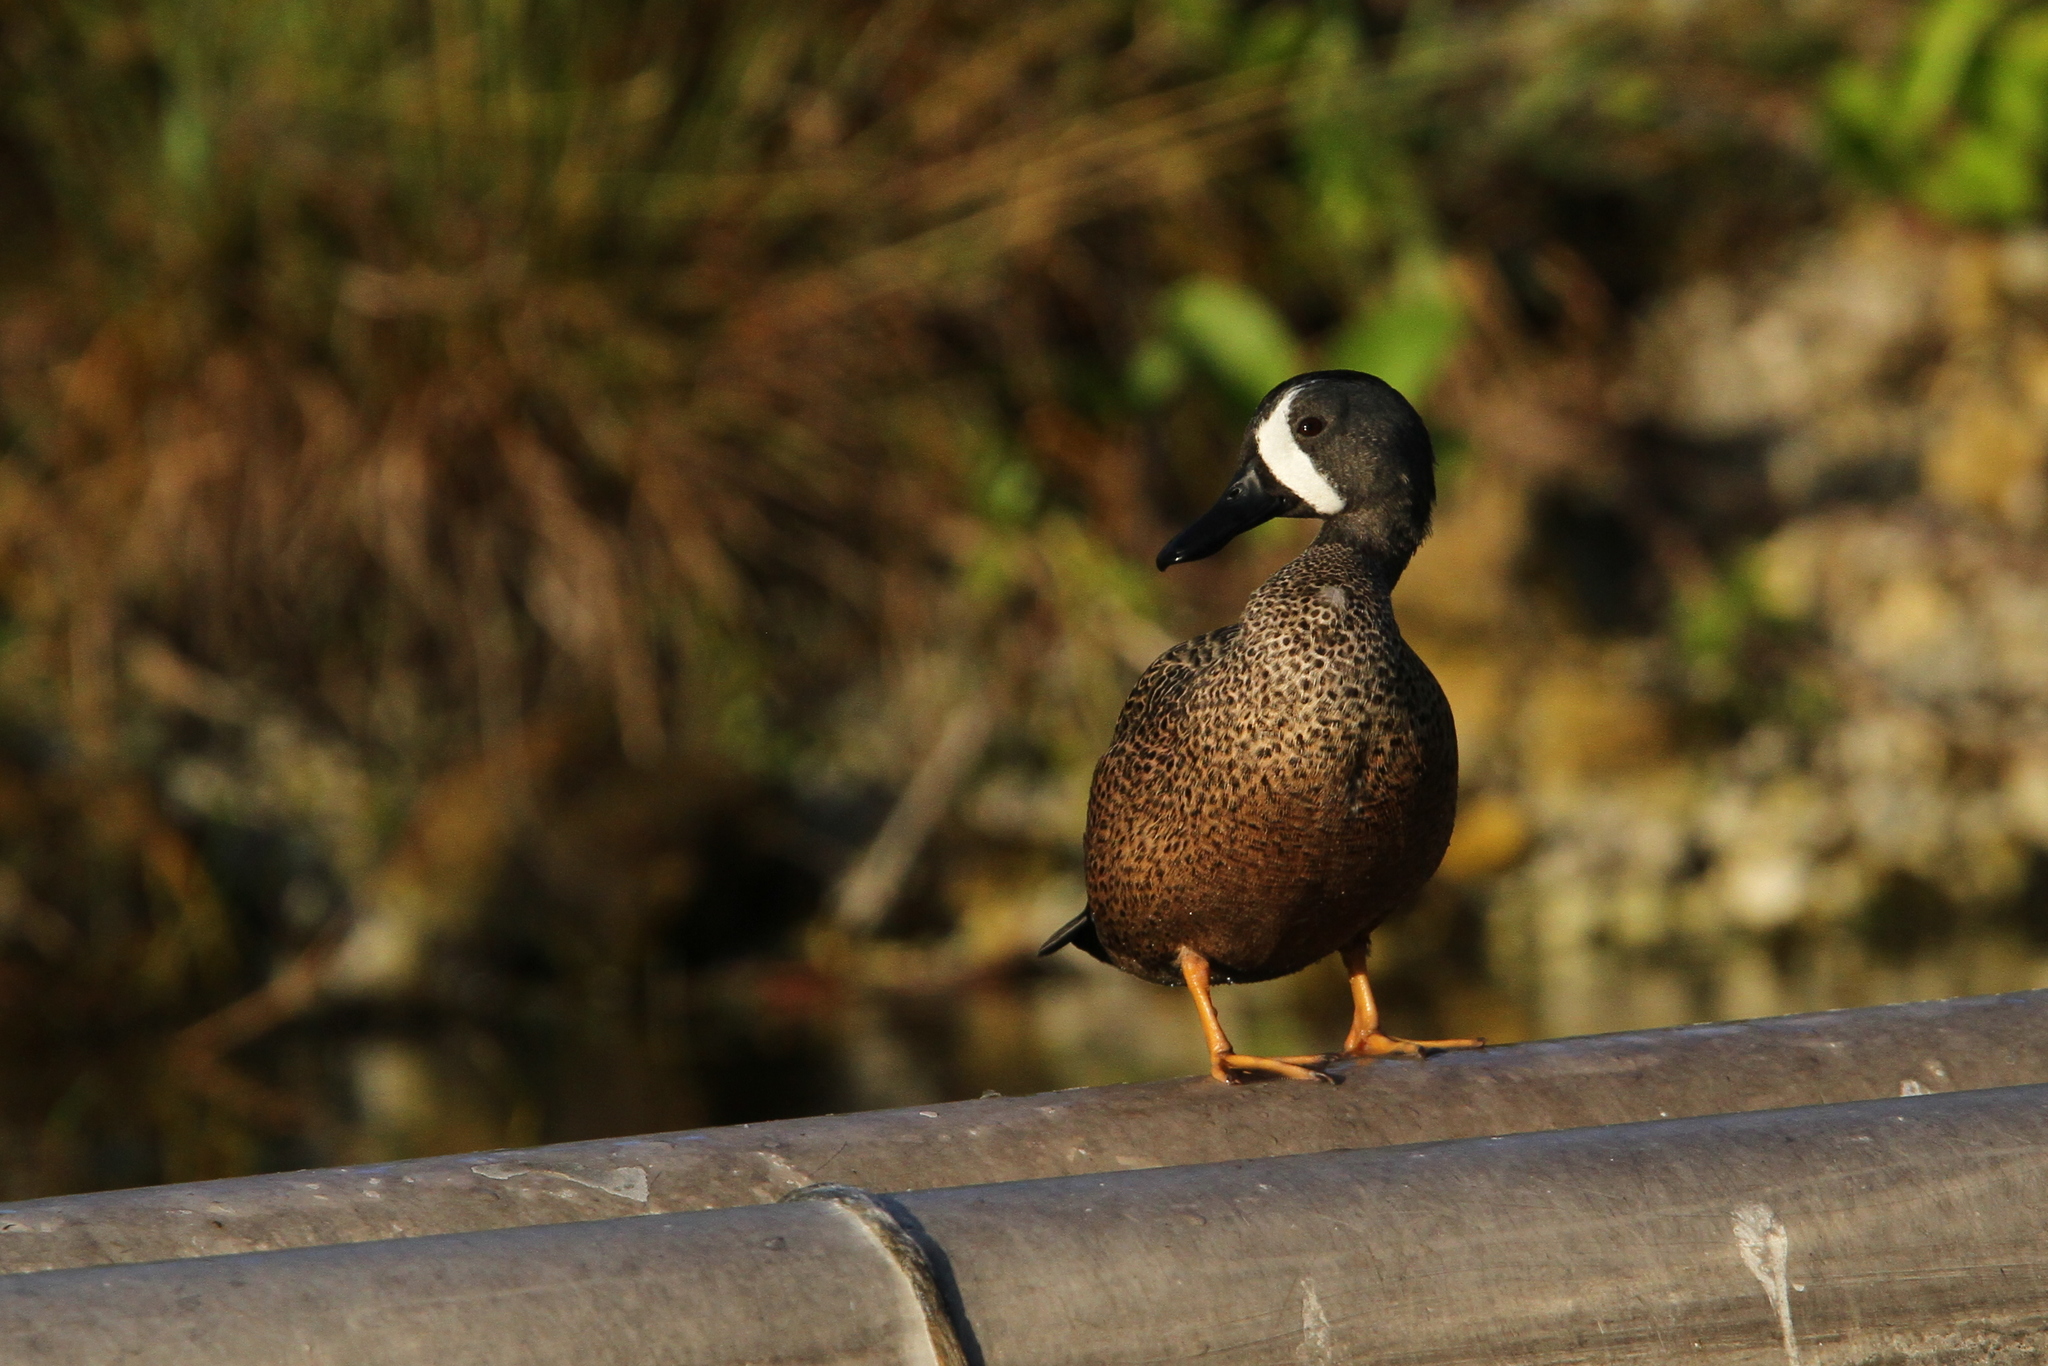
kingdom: Animalia
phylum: Chordata
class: Aves
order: Anseriformes
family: Anatidae
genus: Spatula
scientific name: Spatula discors
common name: Blue-winged teal
